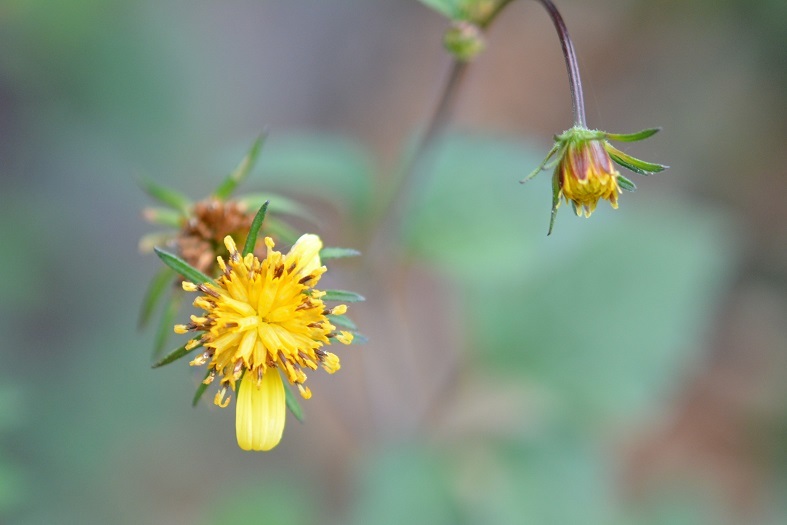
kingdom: Plantae
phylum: Tracheophyta
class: Magnoliopsida
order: Asterales
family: Asteraceae
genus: Bidens
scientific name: Bidens ostruthioides
